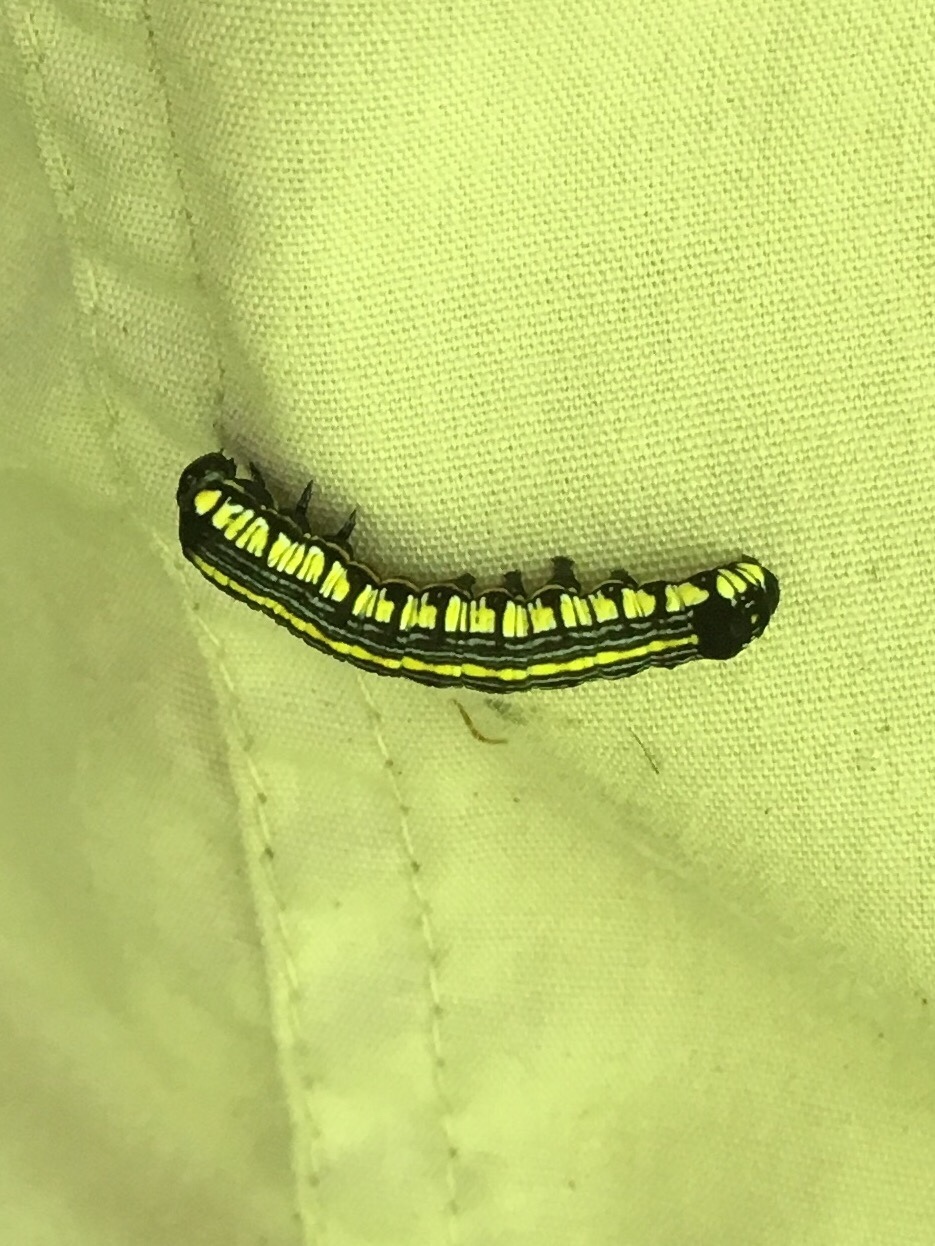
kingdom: Animalia
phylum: Arthropoda
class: Insecta
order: Lepidoptera
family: Noctuidae
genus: Cucullia
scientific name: Cucullia convexipennis
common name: Brown-hooded owlet
